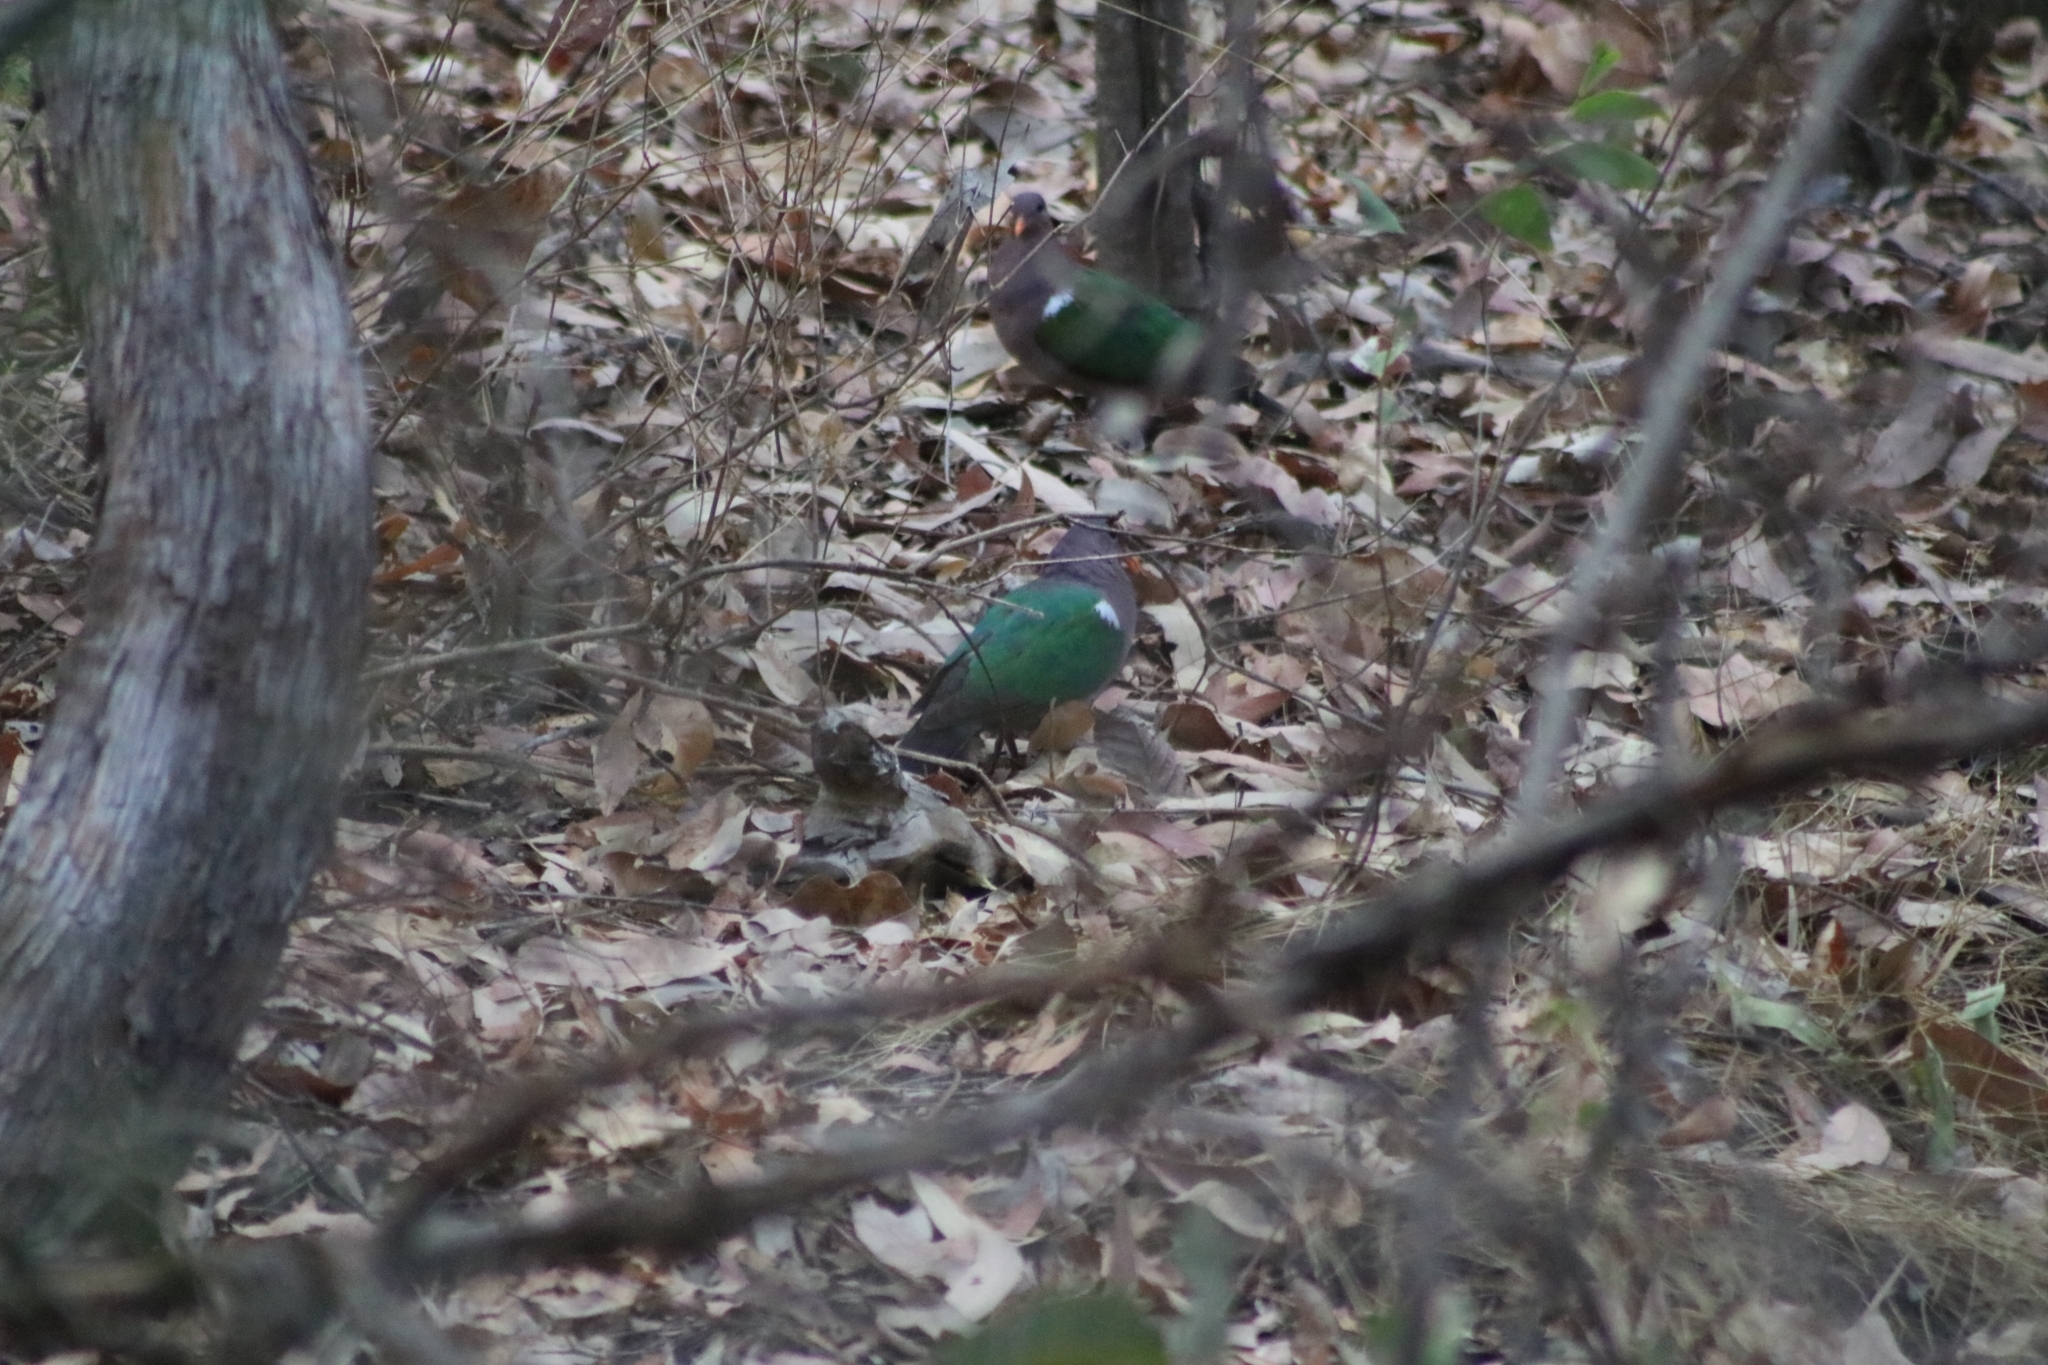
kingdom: Animalia
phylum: Chordata
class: Aves
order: Columbiformes
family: Columbidae
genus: Chalcophaps
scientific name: Chalcophaps longirostris
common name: Pacific emerald dove
